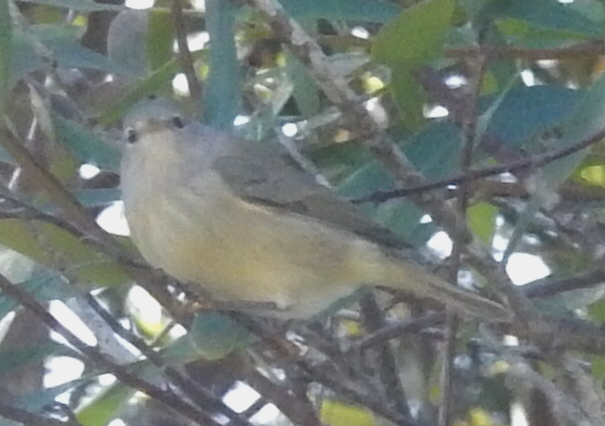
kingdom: Animalia
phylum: Chordata
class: Aves
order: Passeriformes
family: Parulidae
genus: Leiothlypis
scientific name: Leiothlypis celata
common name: Orange-crowned warbler
